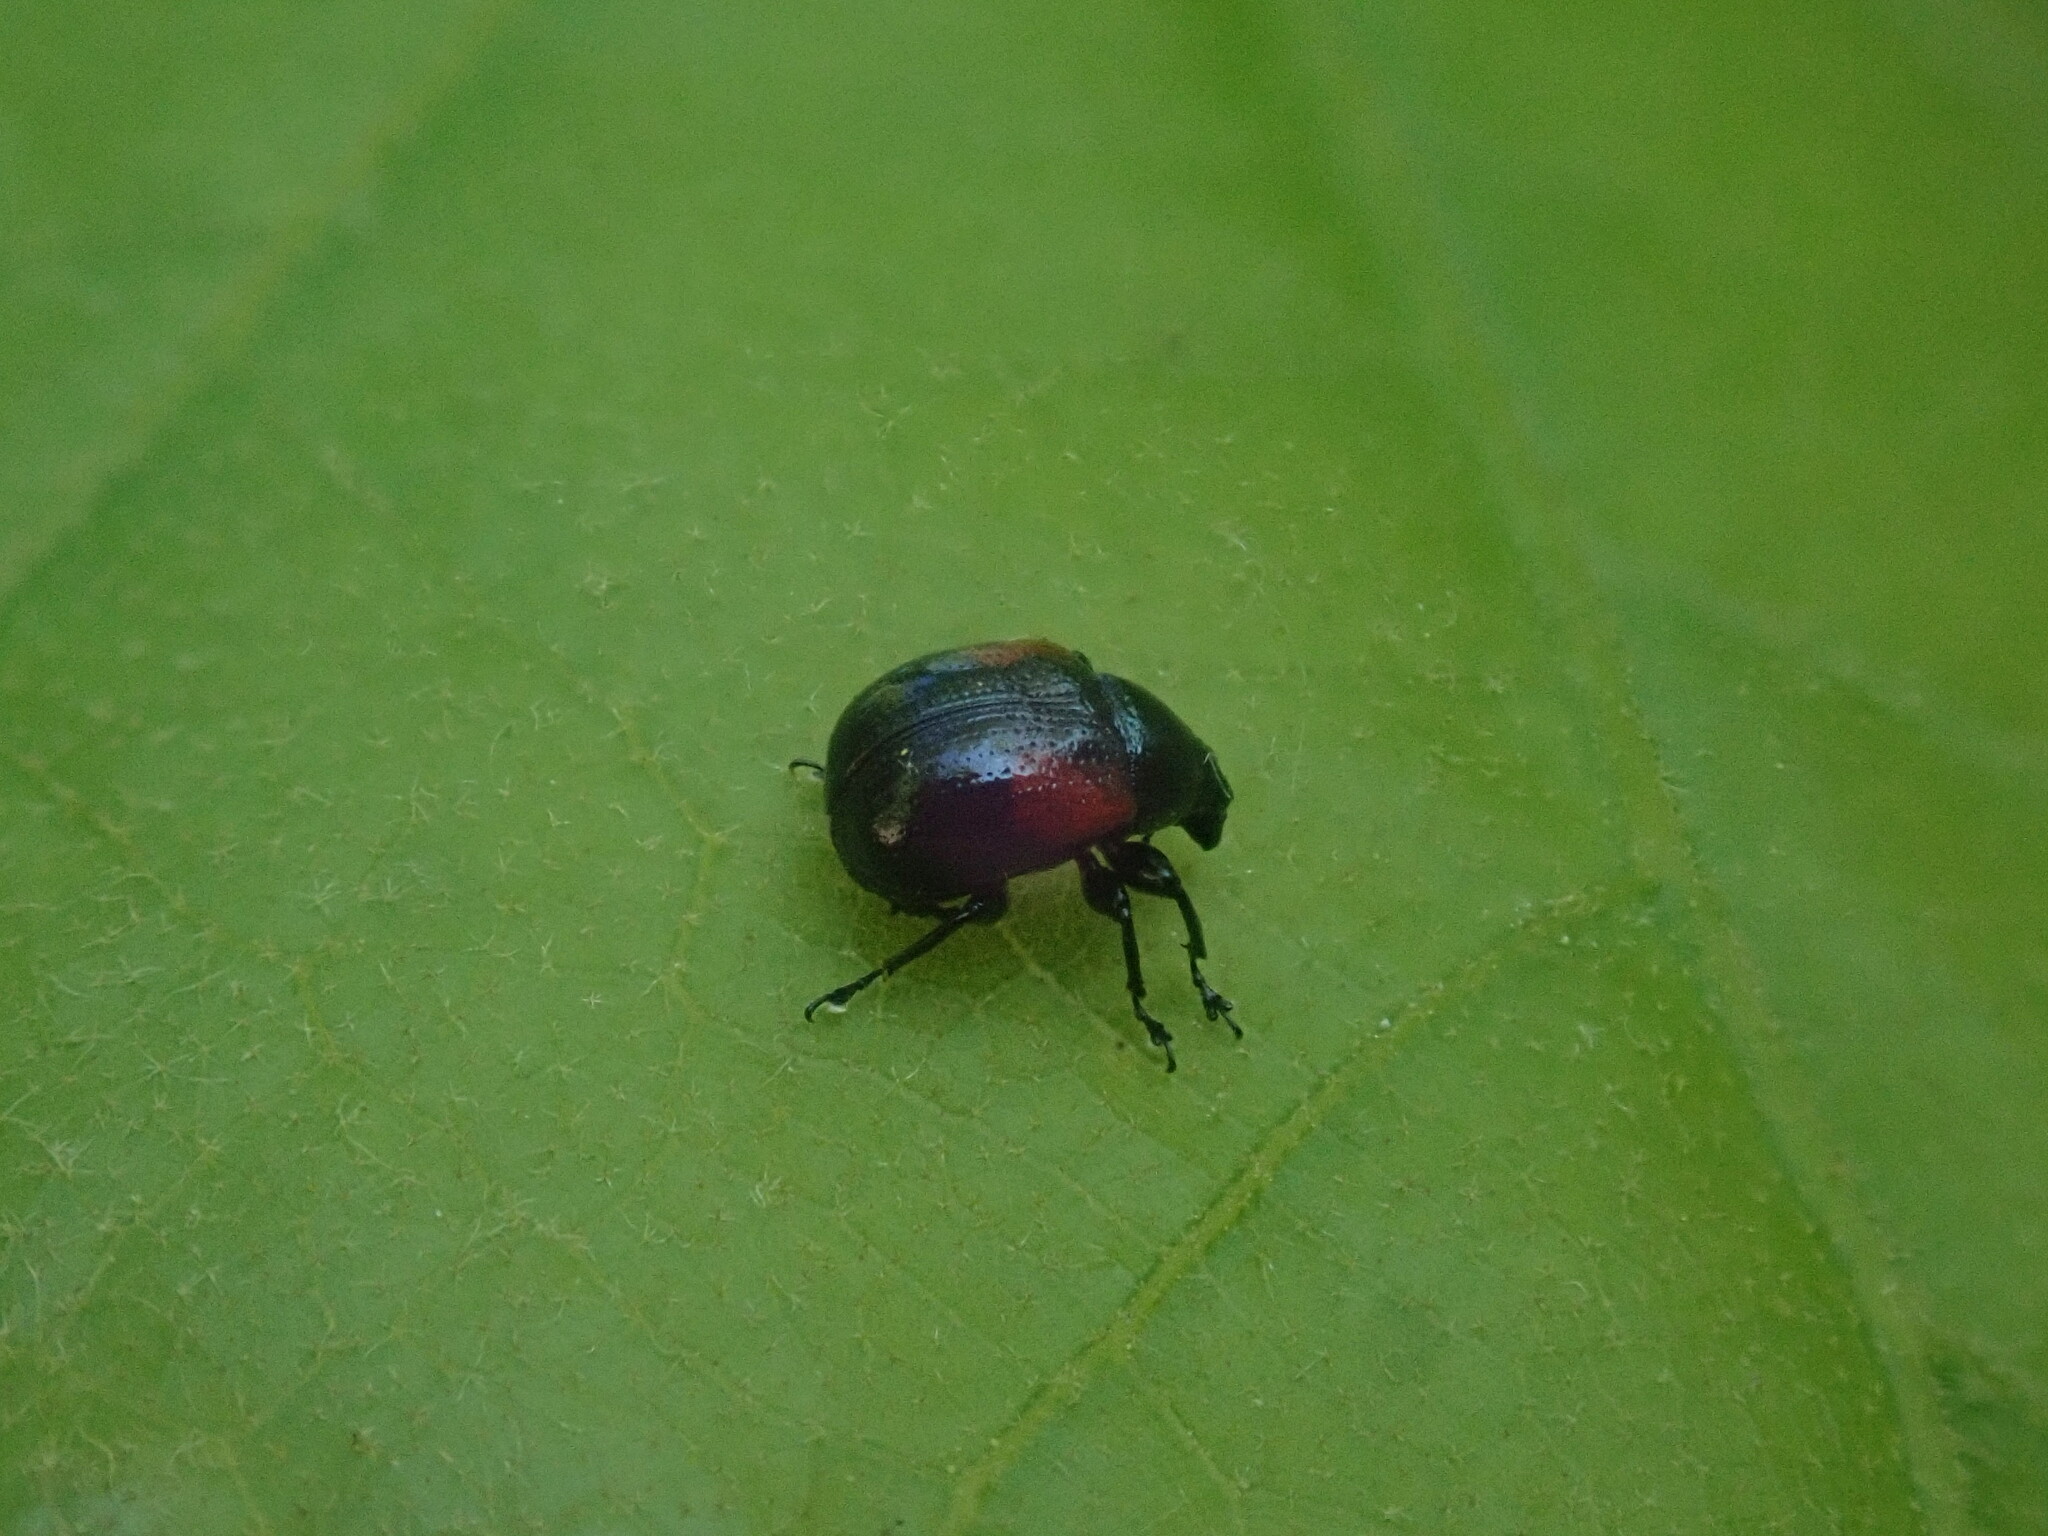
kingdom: Animalia
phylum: Arthropoda
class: Insecta
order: Coleoptera
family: Attelabidae
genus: Attelabus
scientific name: Attelabus bipustulatus
